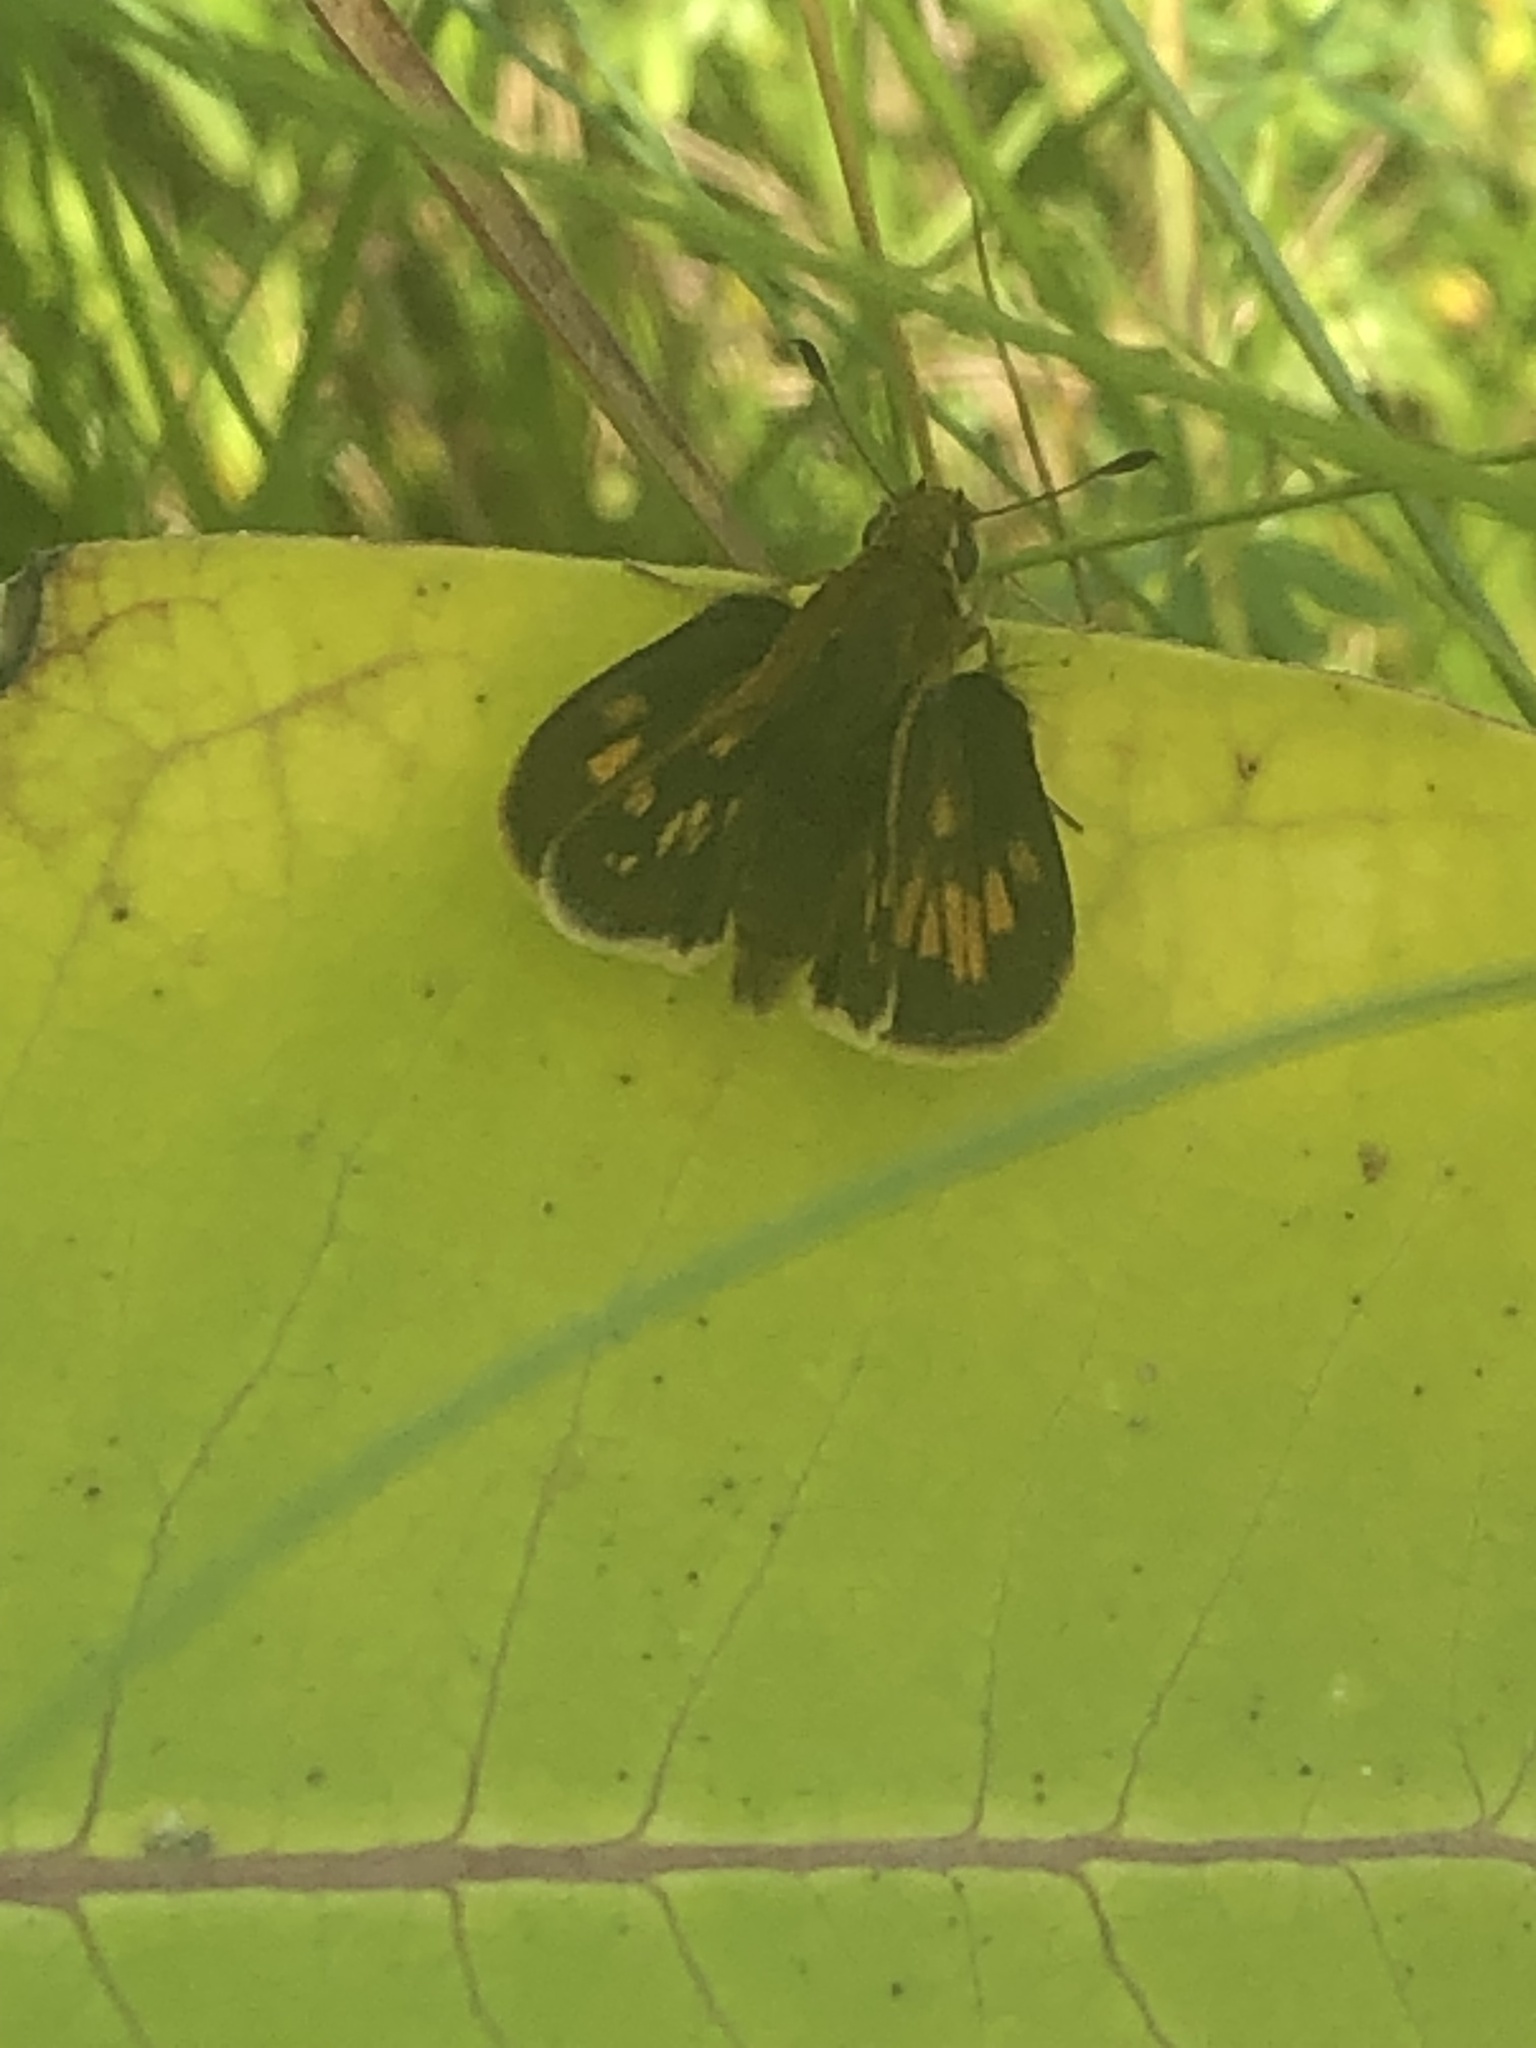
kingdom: Animalia
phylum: Arthropoda
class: Insecta
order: Lepidoptera
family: Hesperiidae
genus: Polites
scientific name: Polites coras
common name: Peck's skipper
